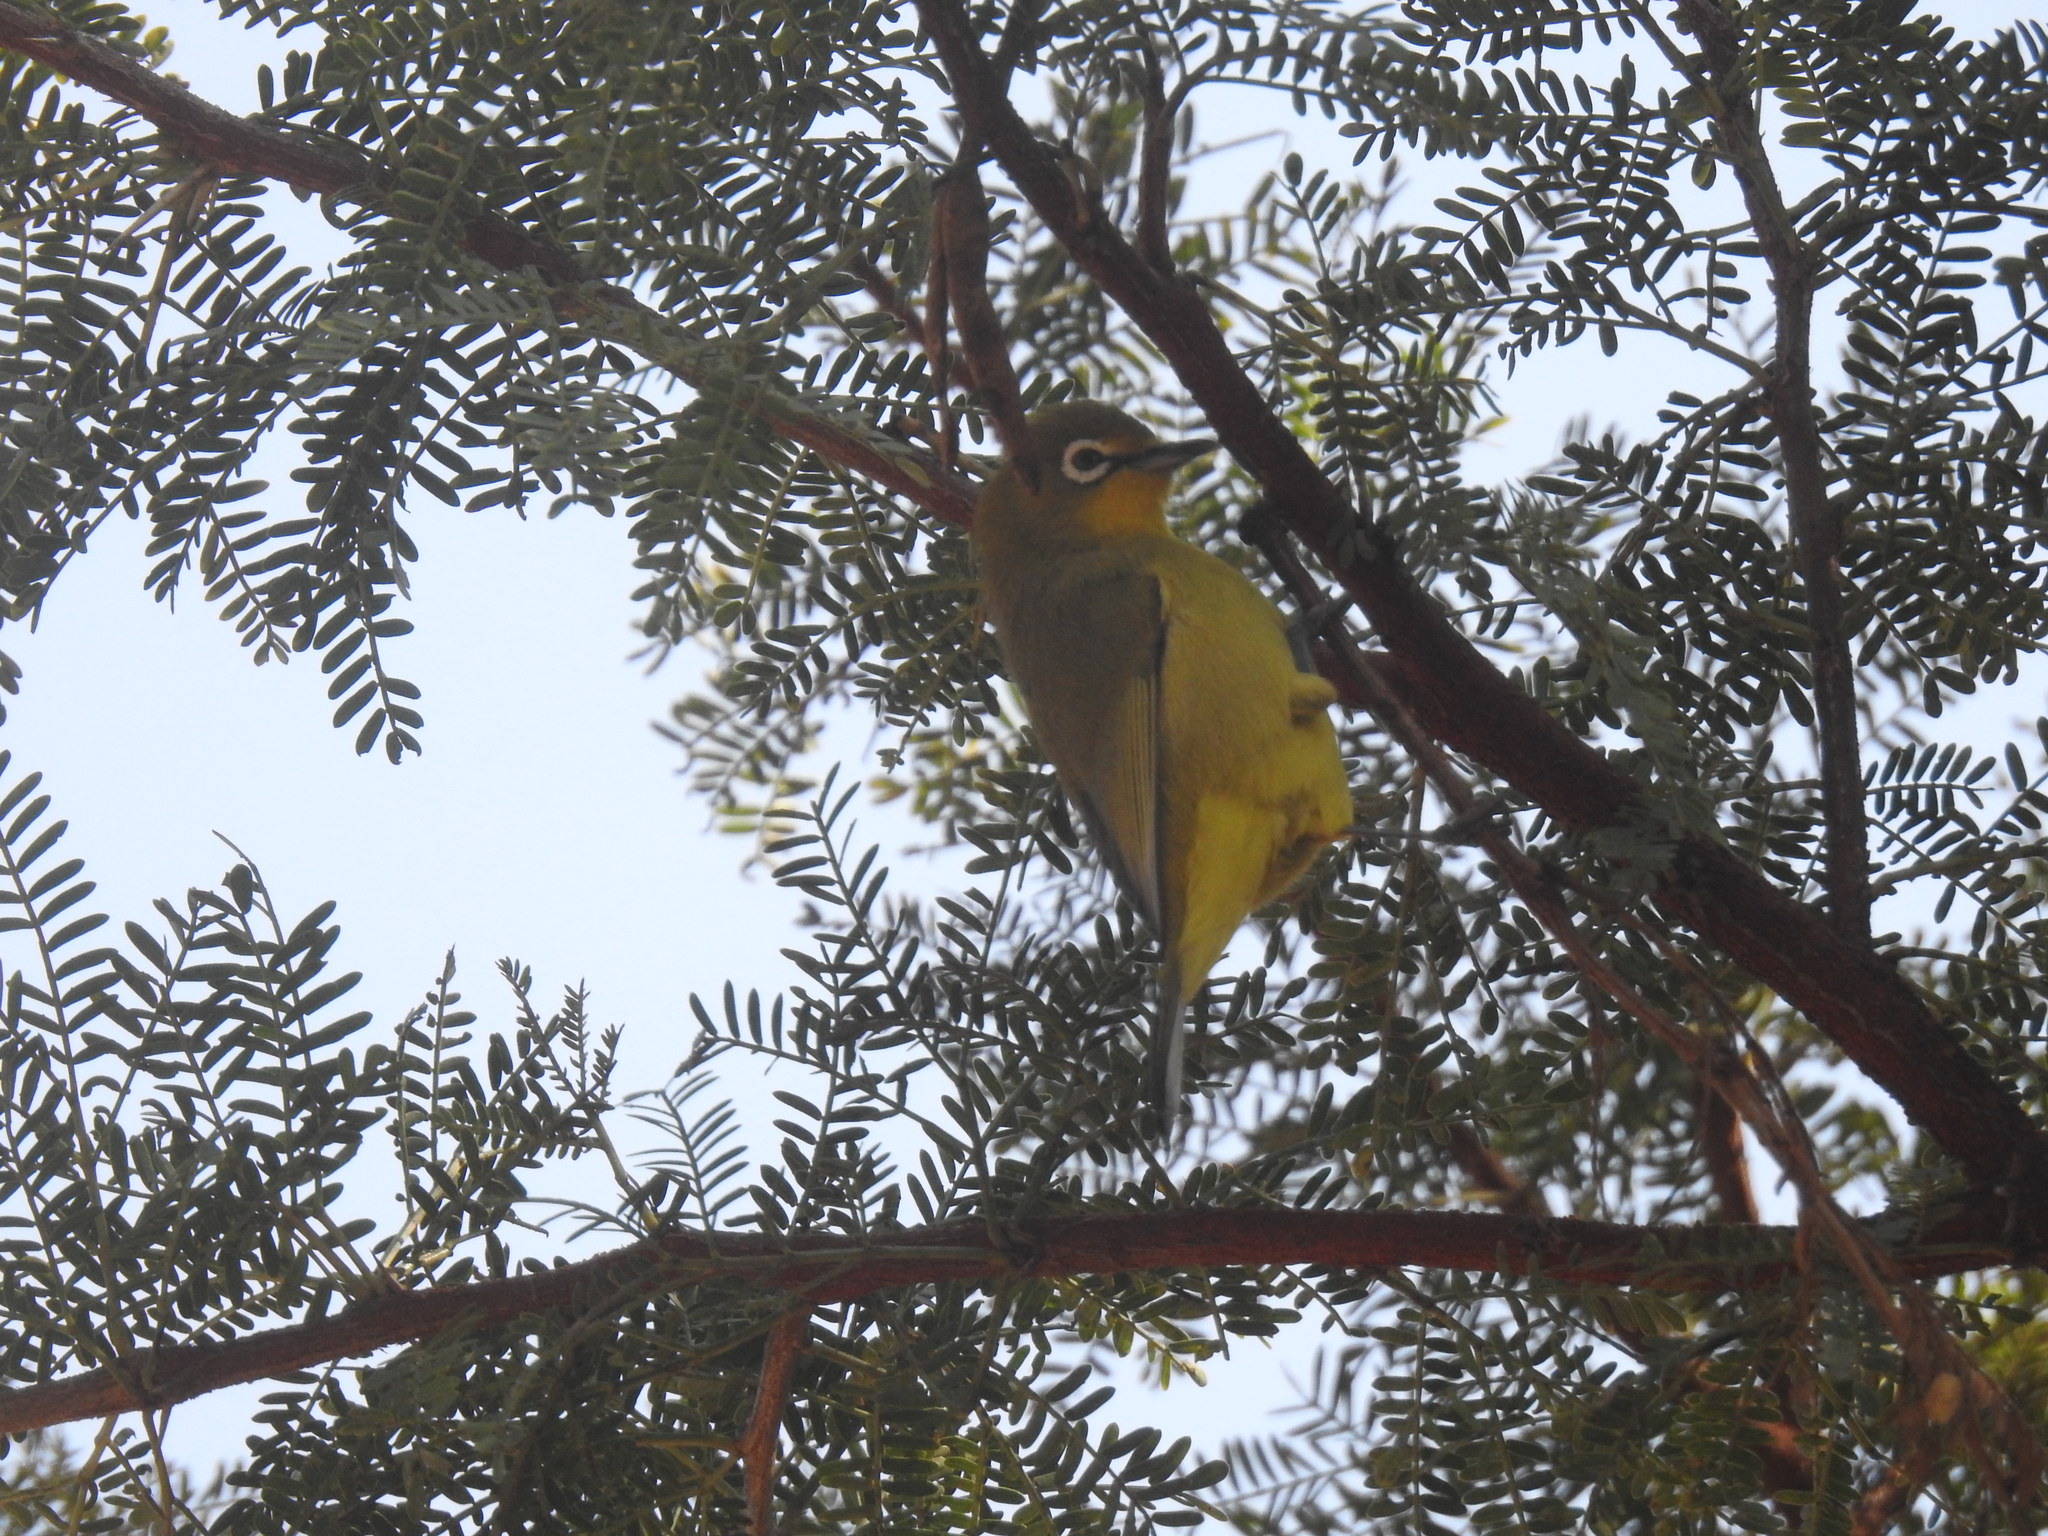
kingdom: Animalia
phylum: Chordata
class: Aves
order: Passeriformes
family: Zosteropidae
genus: Zosterops
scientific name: Zosterops virens
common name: Cape white-eye
